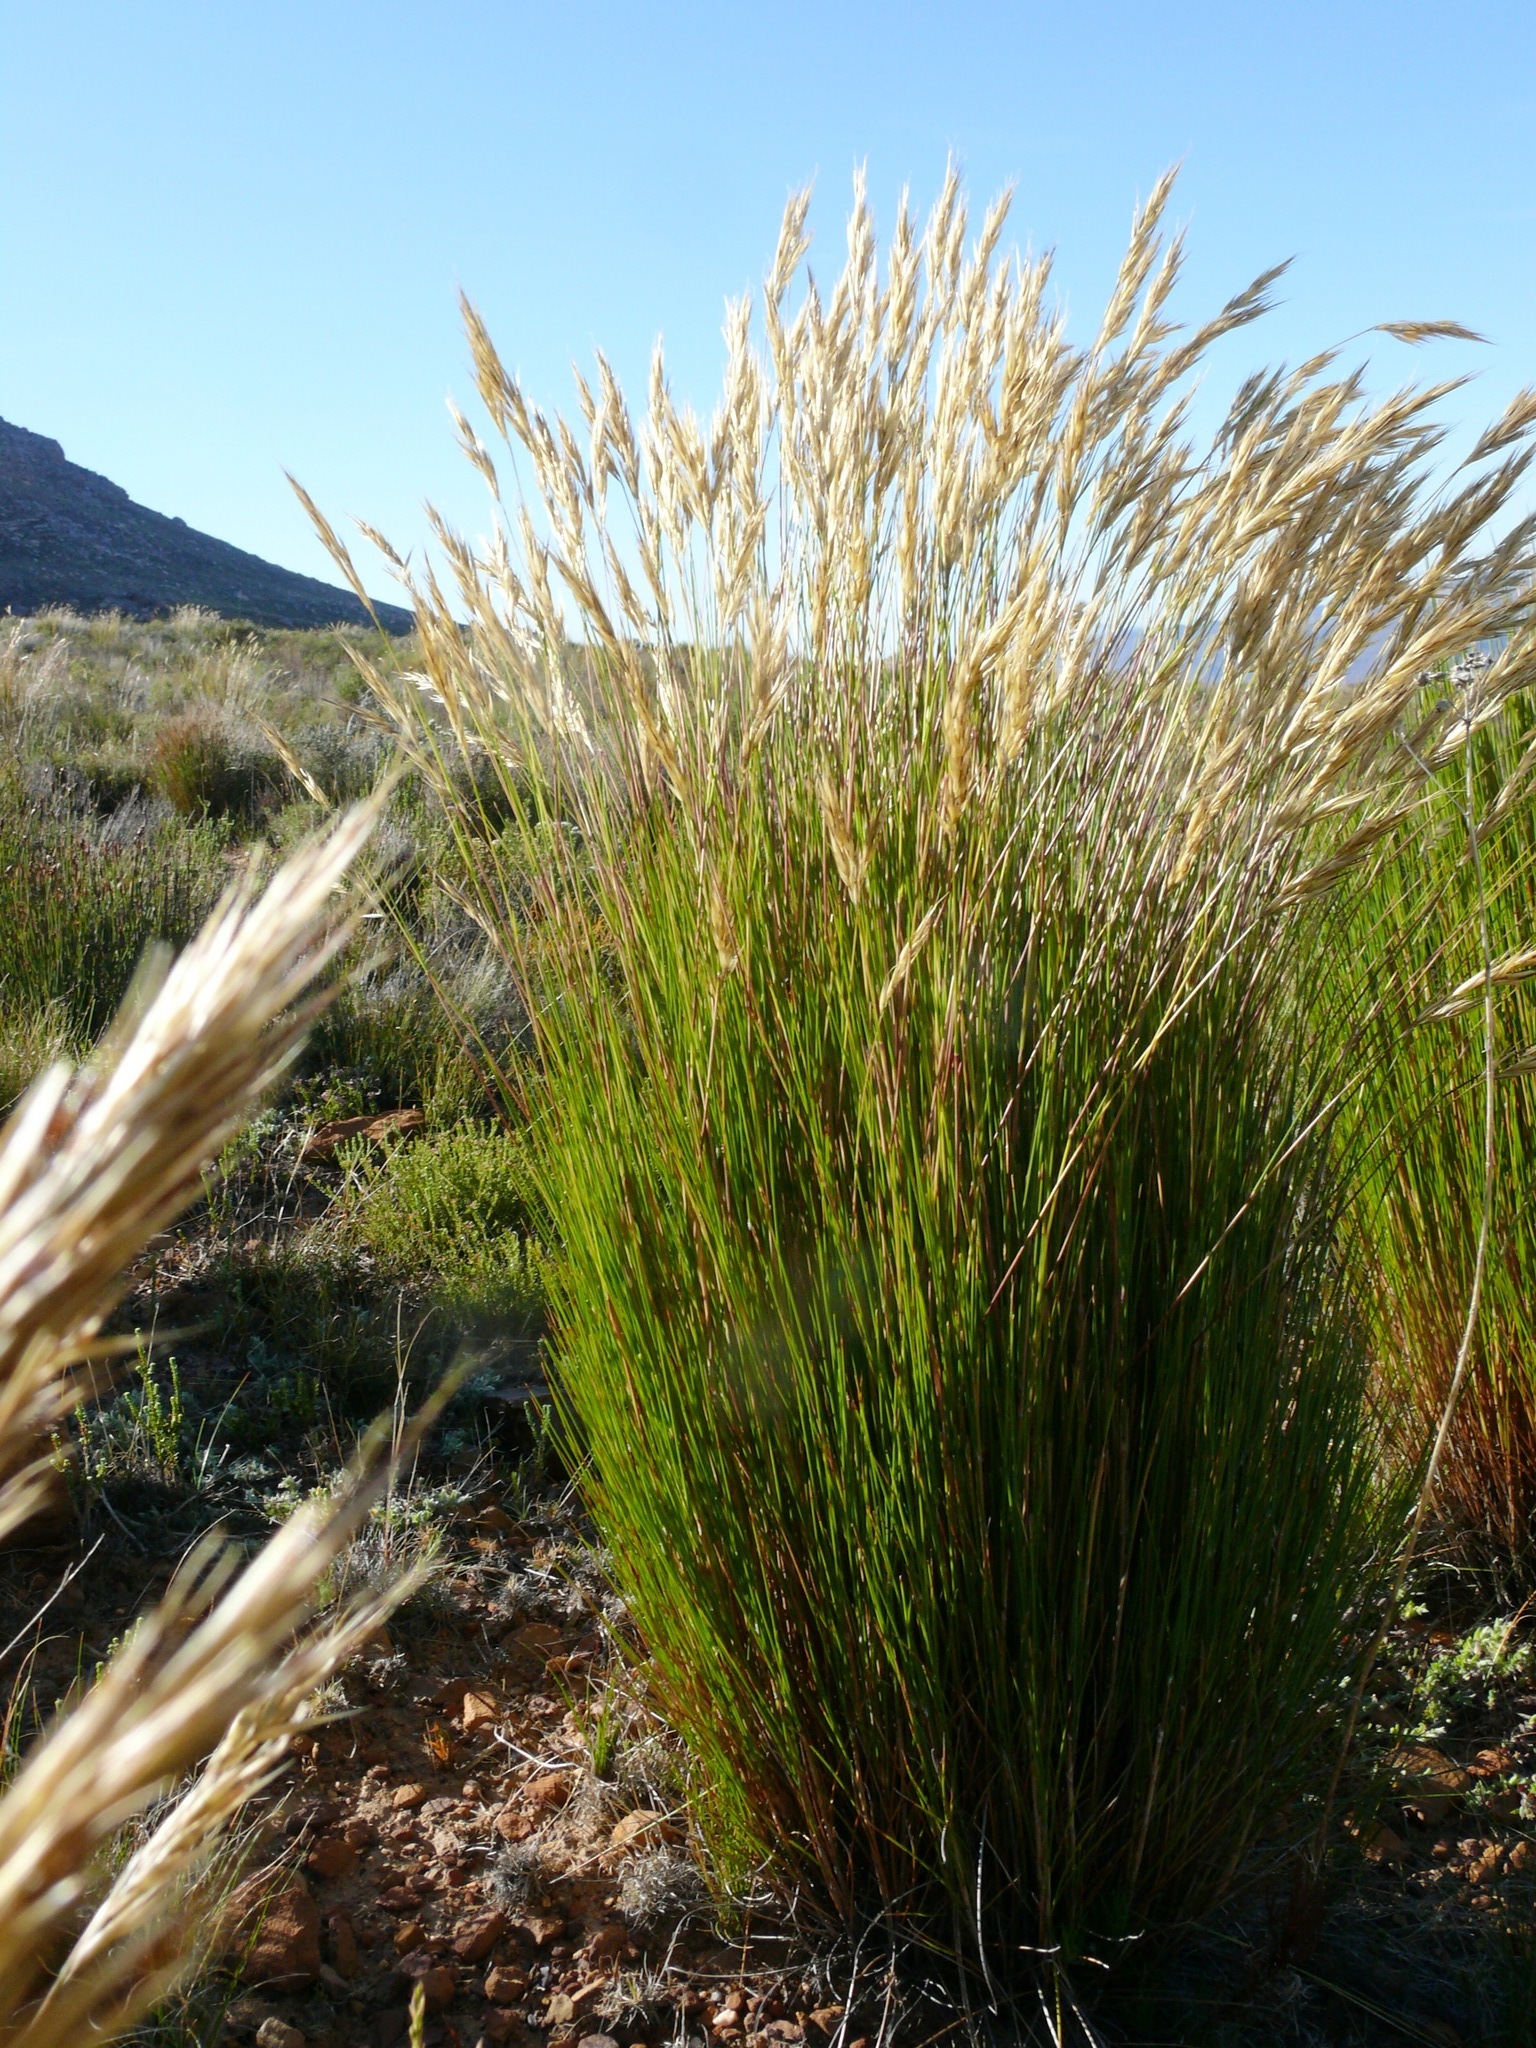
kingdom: Plantae
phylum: Tracheophyta
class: Liliopsida
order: Poales
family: Poaceae
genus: Tenaxia
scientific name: Tenaxia stricta
